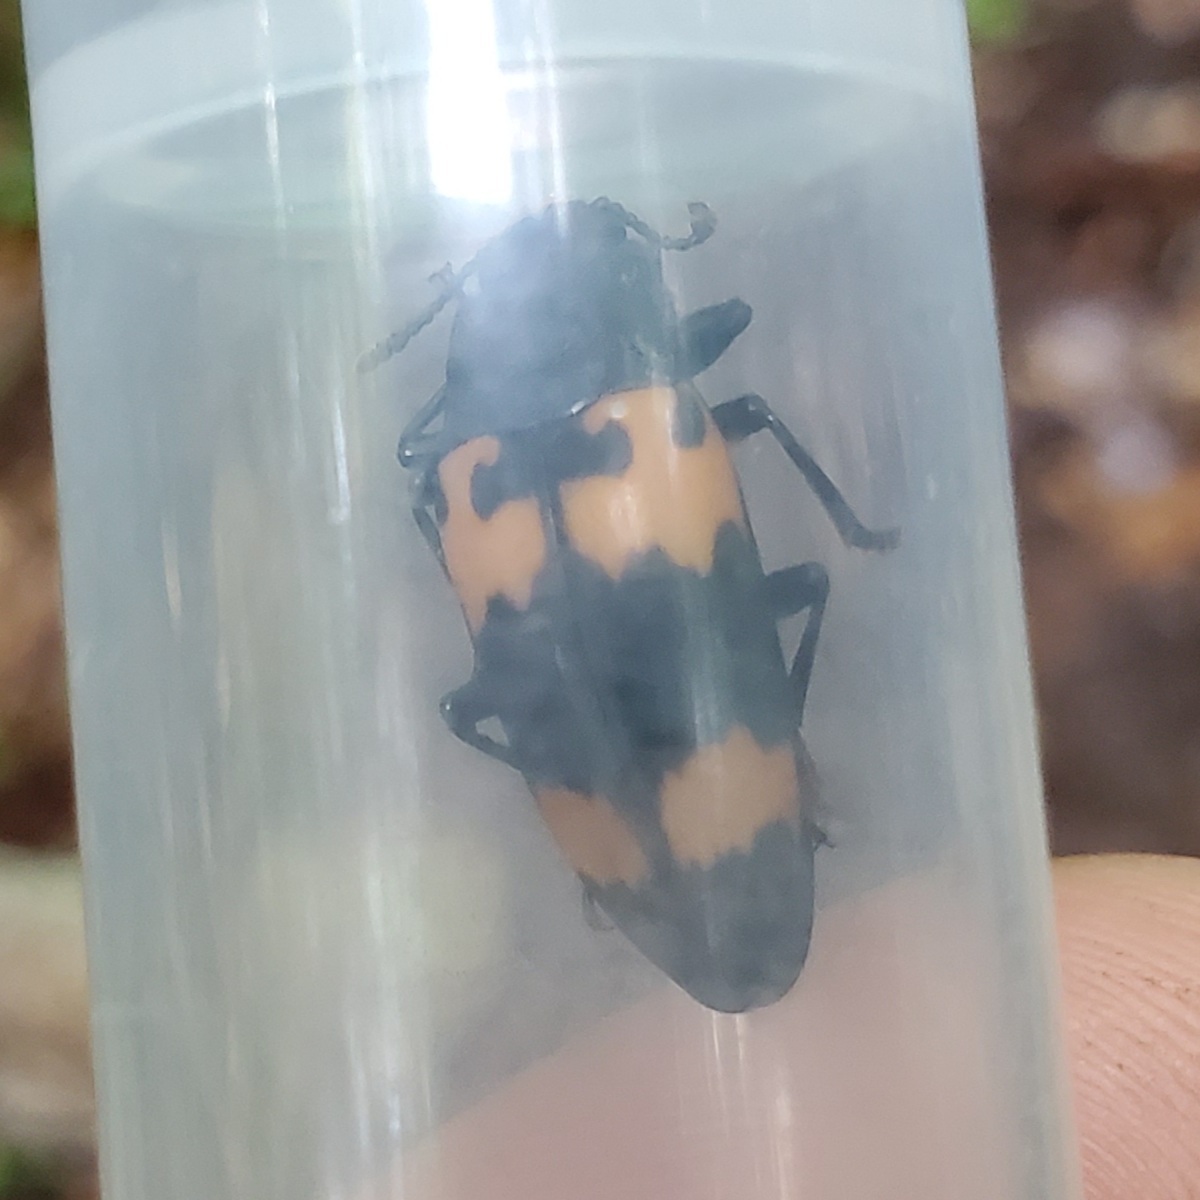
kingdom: Animalia
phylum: Arthropoda
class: Insecta
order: Coleoptera
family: Erotylidae
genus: Megalodacne
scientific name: Megalodacne heros
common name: Pleasing fungus beetle
